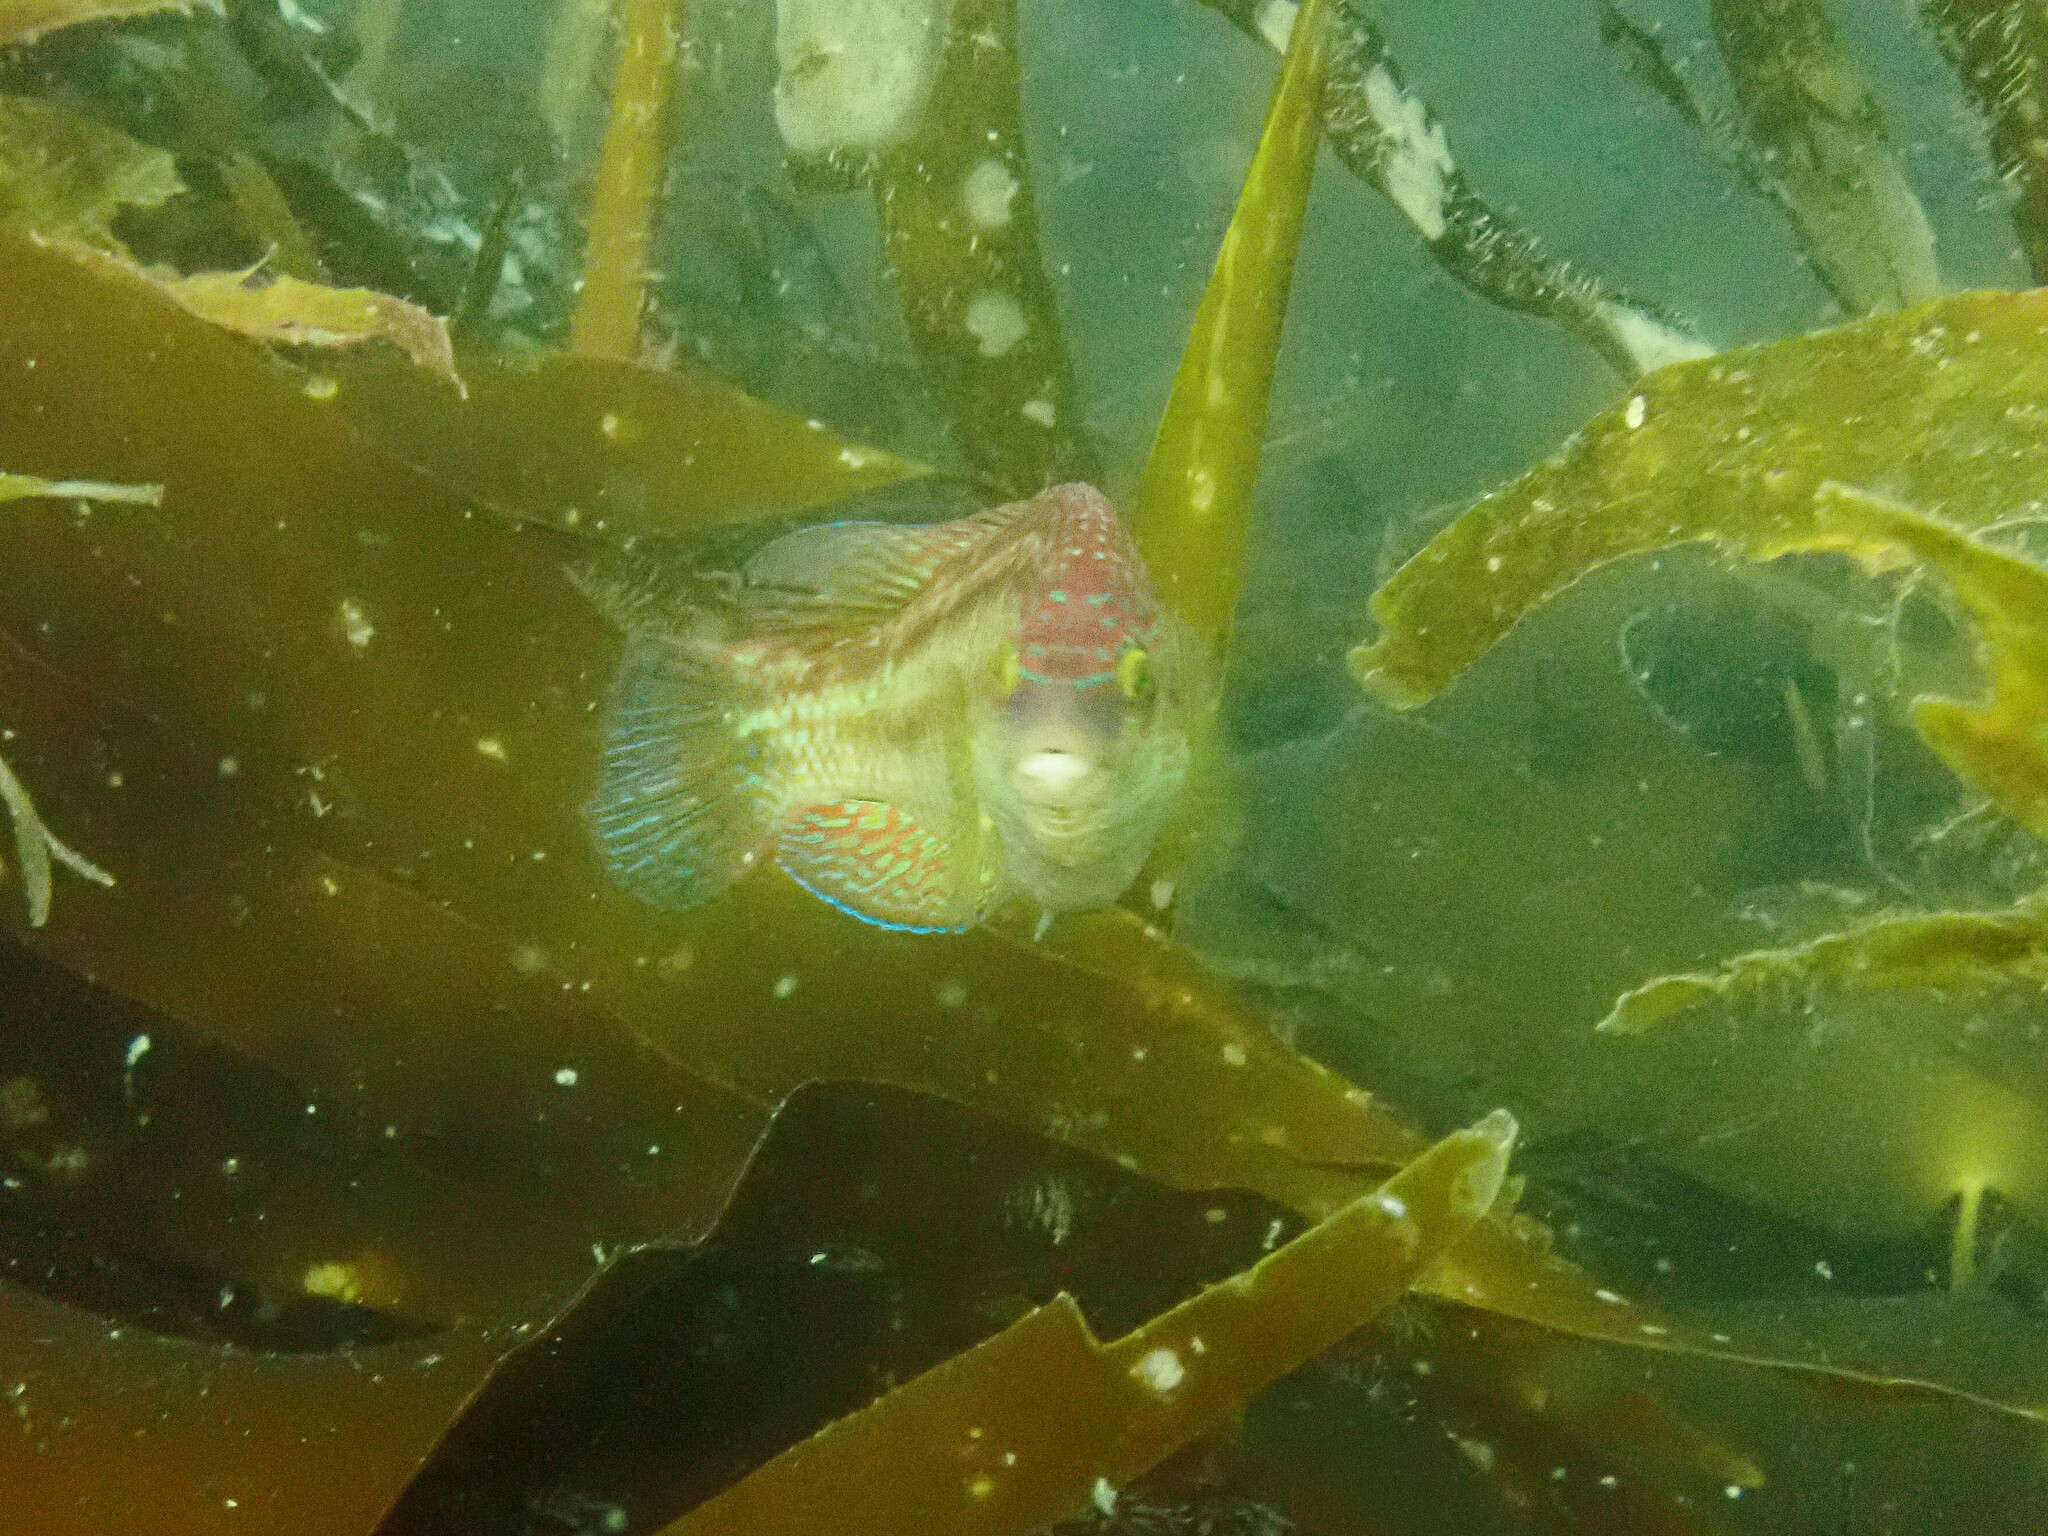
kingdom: Animalia
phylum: Chordata
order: Perciformes
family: Labridae
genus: Symphodus
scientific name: Symphodus melops
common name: Corkwing
